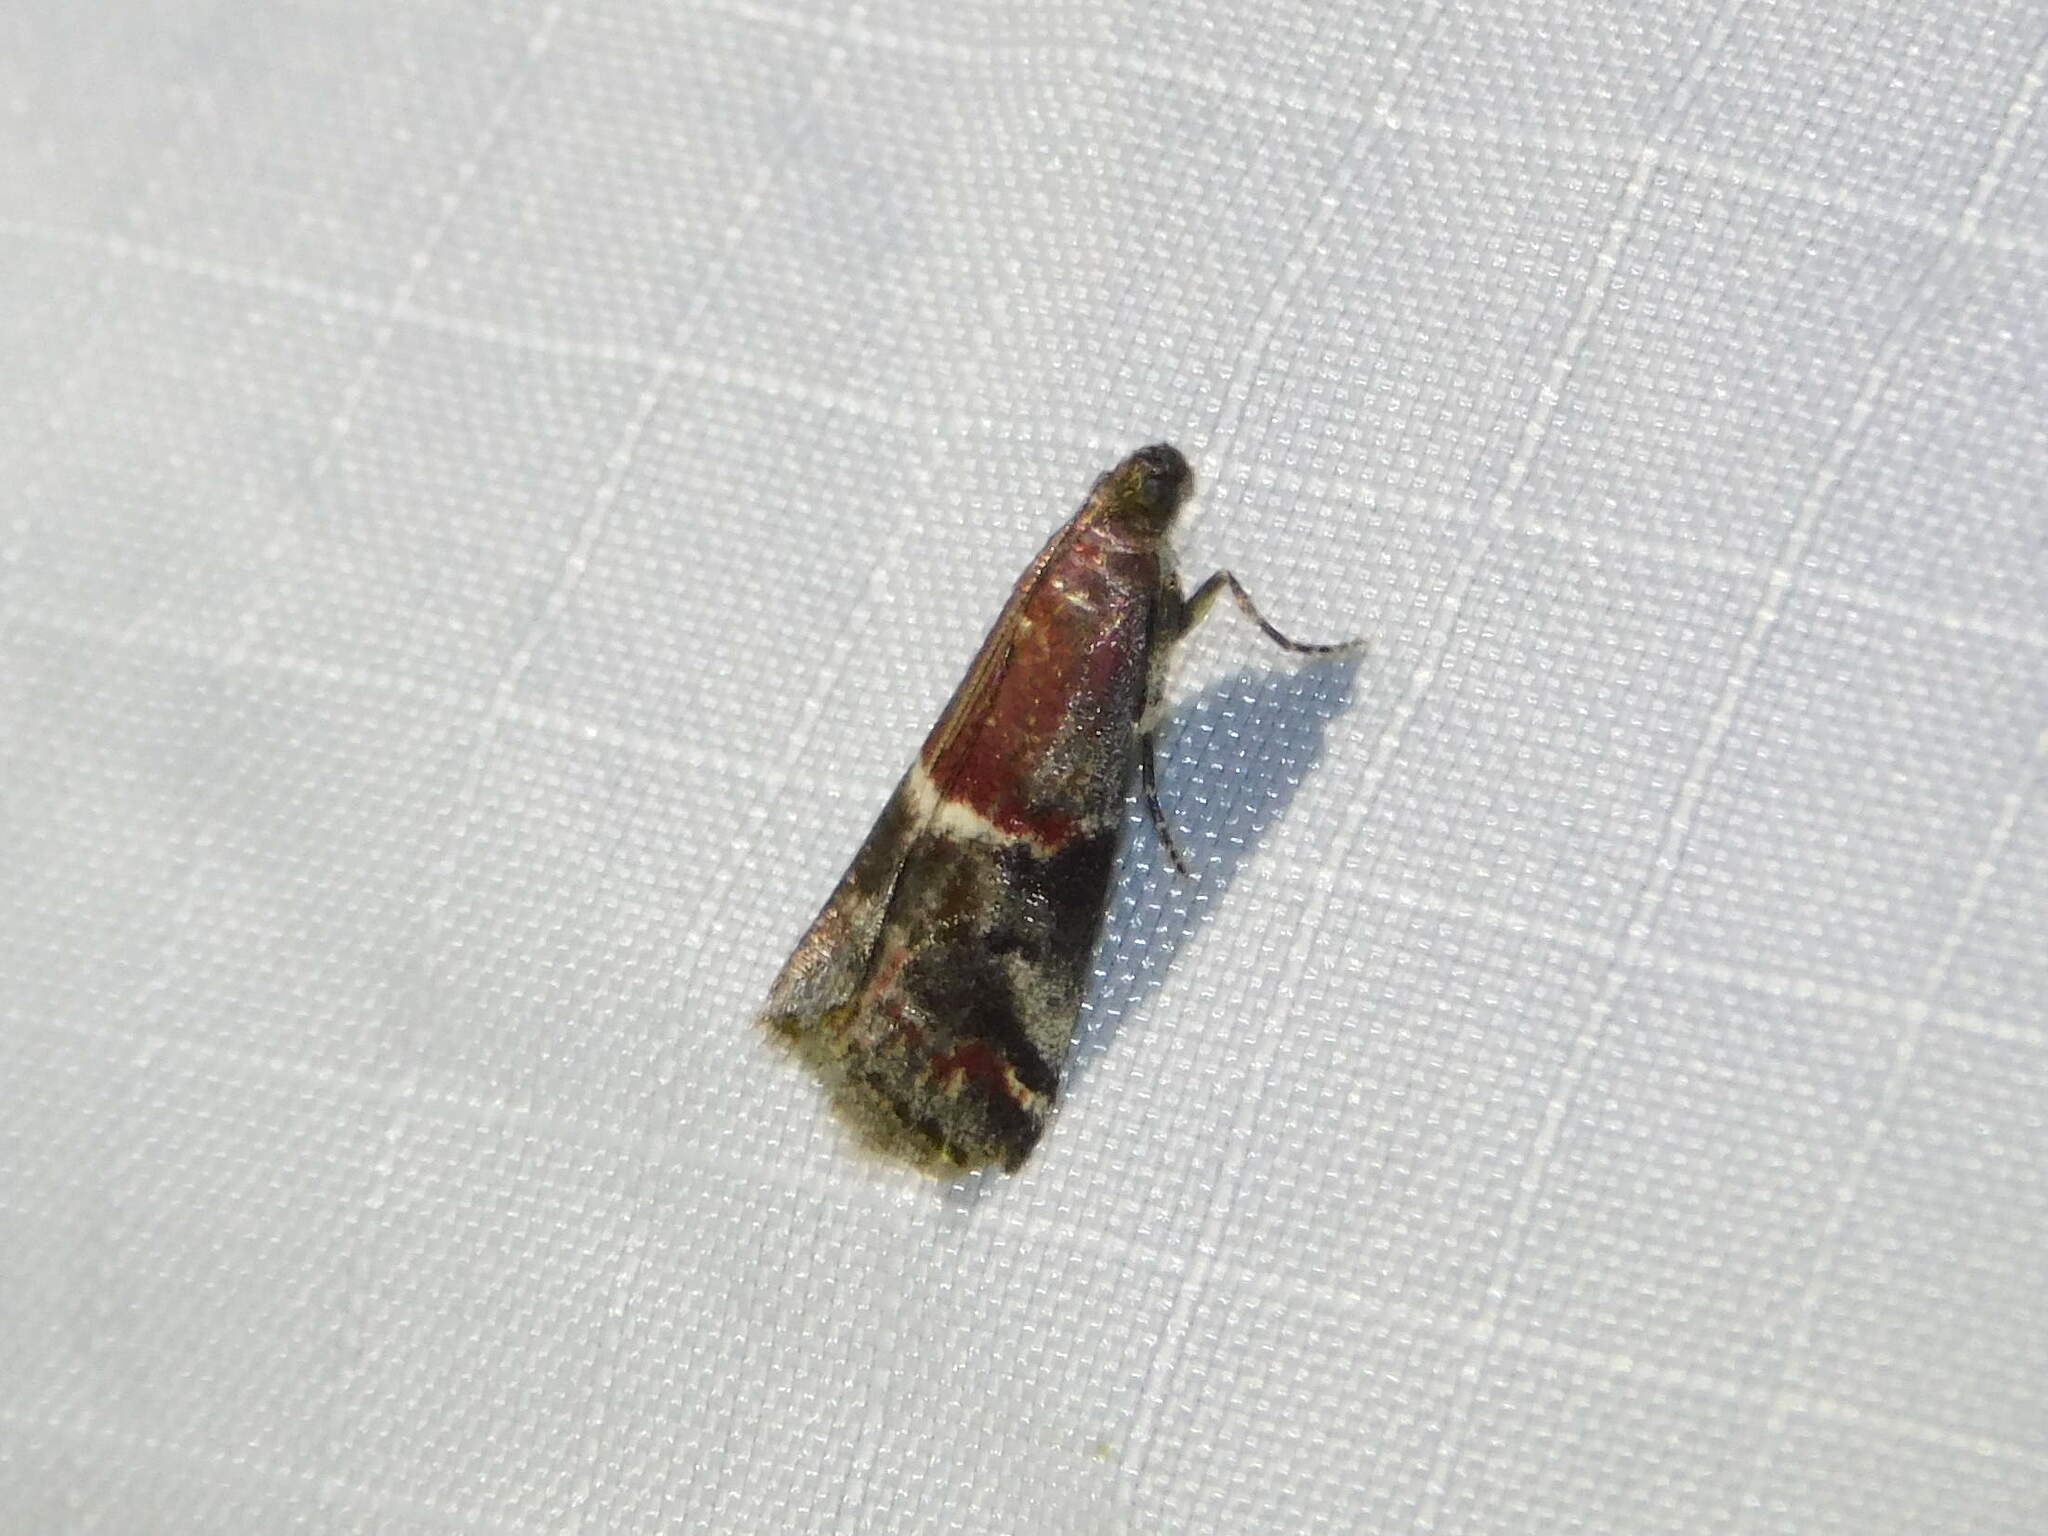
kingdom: Animalia
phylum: Arthropoda
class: Insecta
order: Lepidoptera
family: Pyralidae
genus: Acrobasis
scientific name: Acrobasis marmorea
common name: Marbled knot-horn
